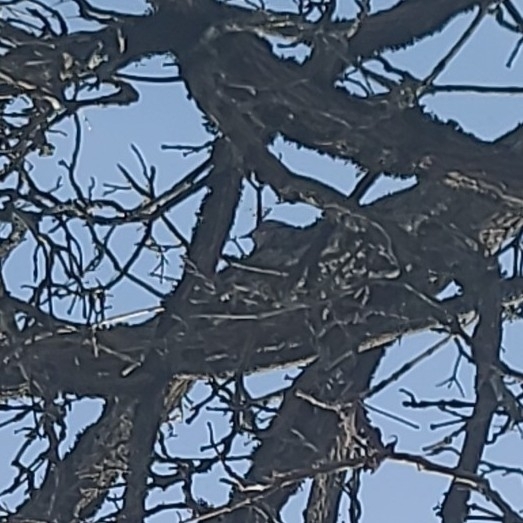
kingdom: Animalia
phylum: Chordata
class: Aves
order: Piciformes
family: Picidae
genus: Colaptes
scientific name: Colaptes auratus
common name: Northern flicker
